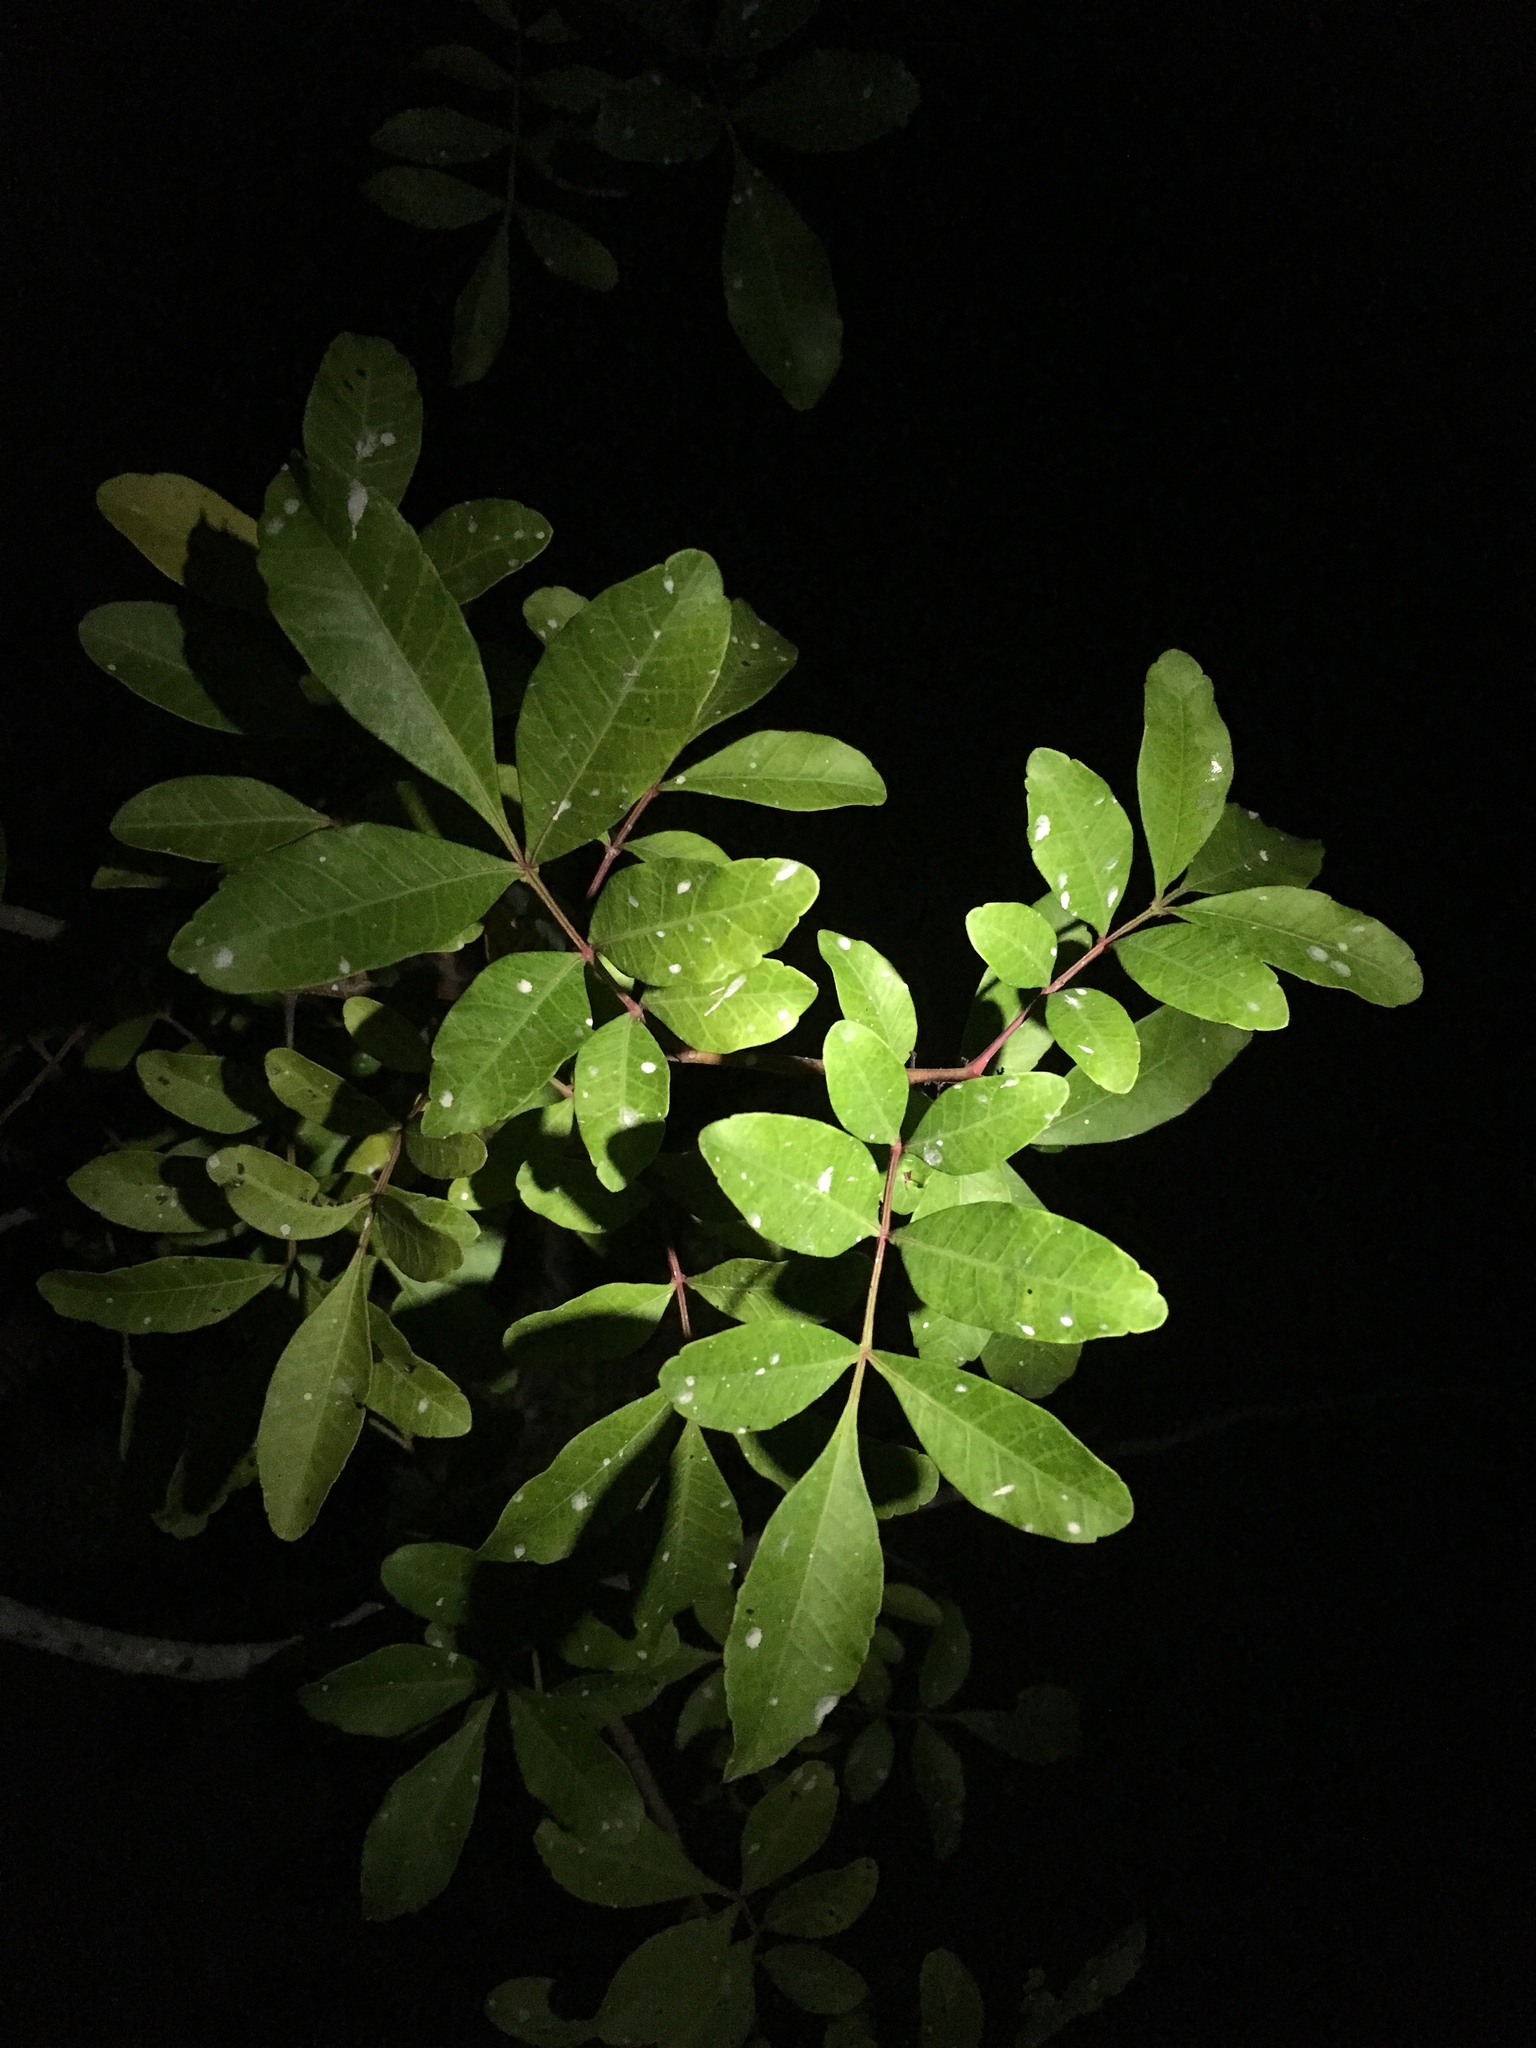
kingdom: Plantae
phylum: Tracheophyta
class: Magnoliopsida
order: Sapindales
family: Anacardiaceae
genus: Schinus
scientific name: Schinus terebinthifolia
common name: Brazilian peppertree
